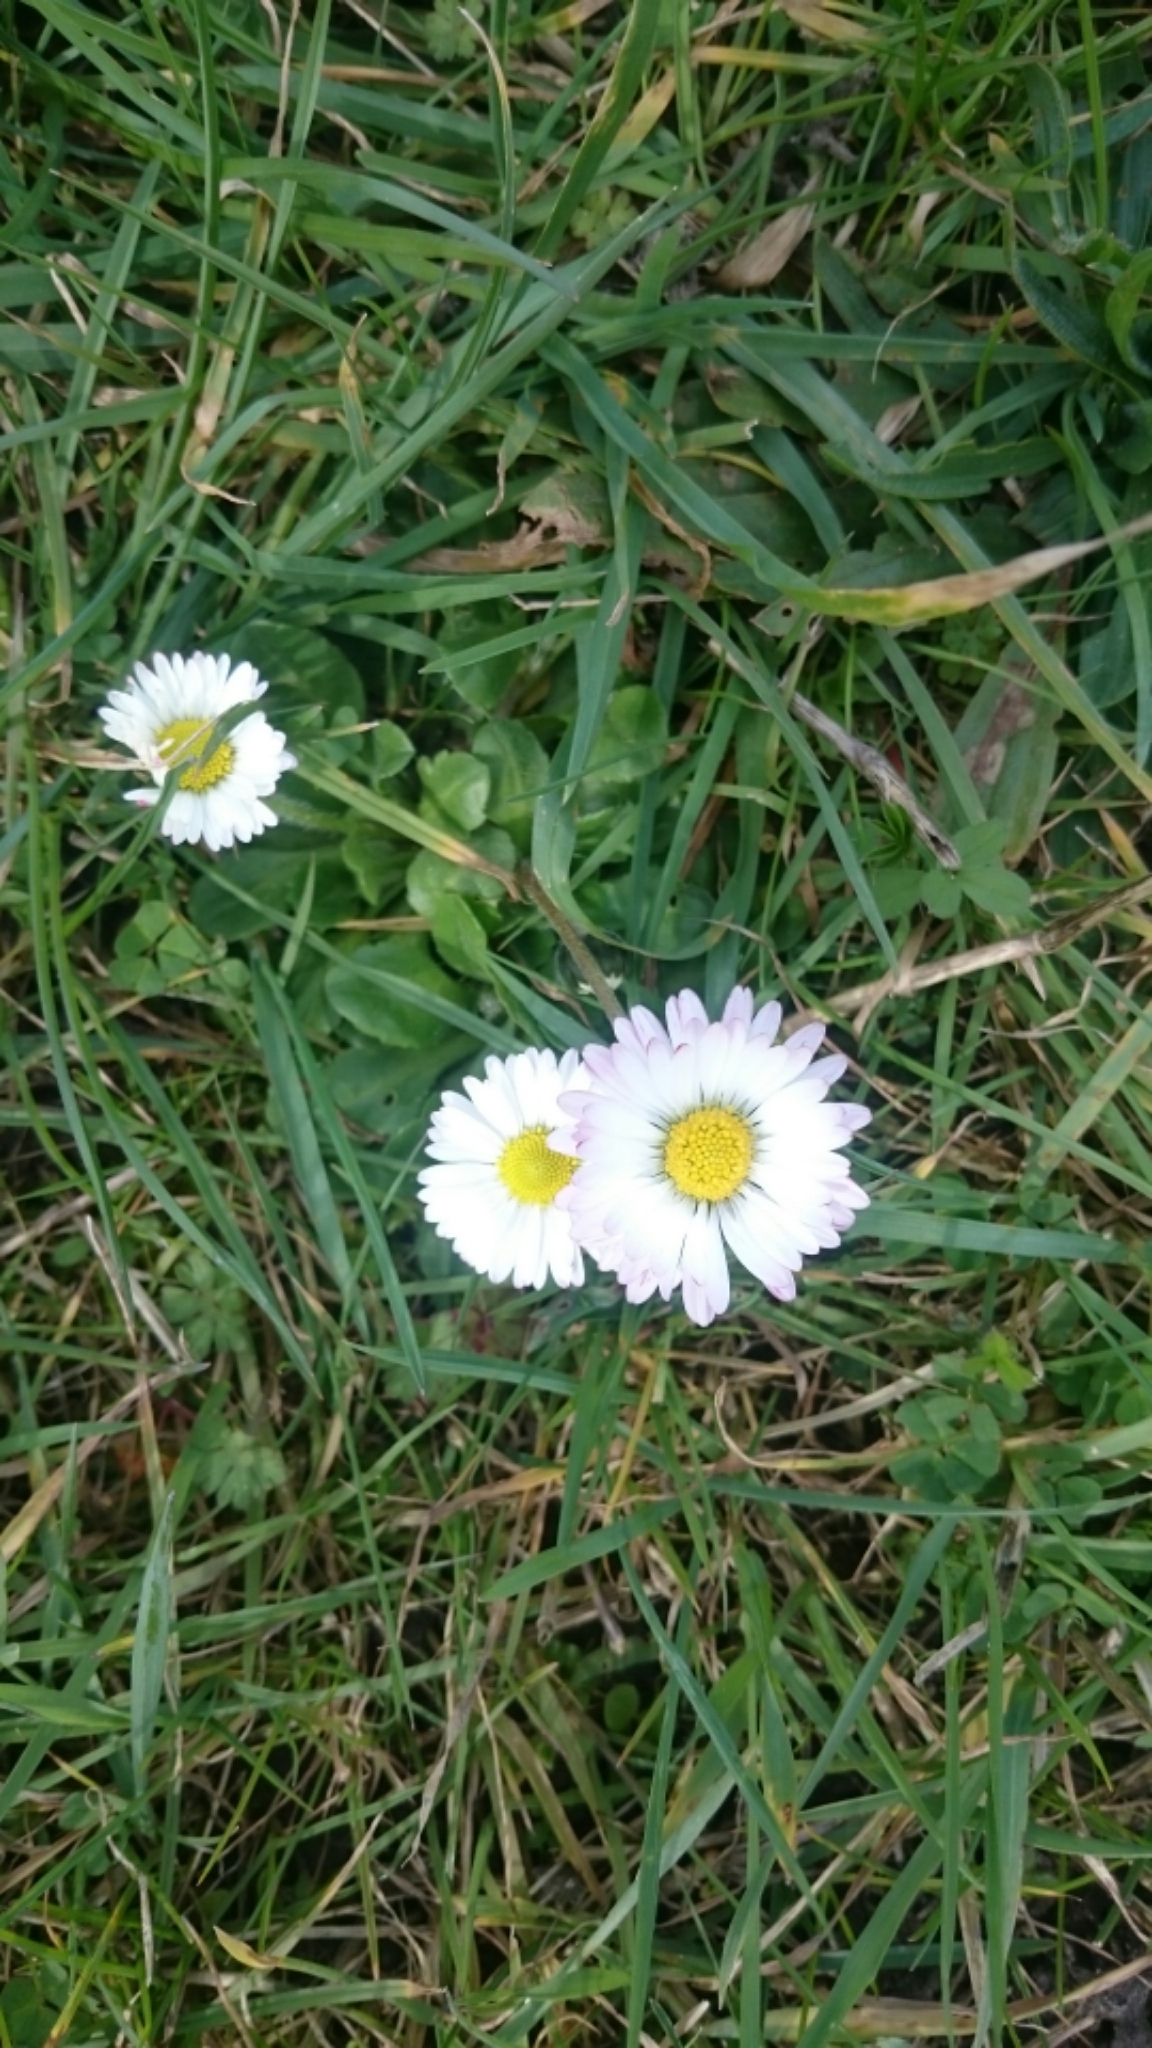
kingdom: Plantae
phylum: Tracheophyta
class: Magnoliopsida
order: Asterales
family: Asteraceae
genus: Bellis
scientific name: Bellis perennis
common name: Lawndaisy
